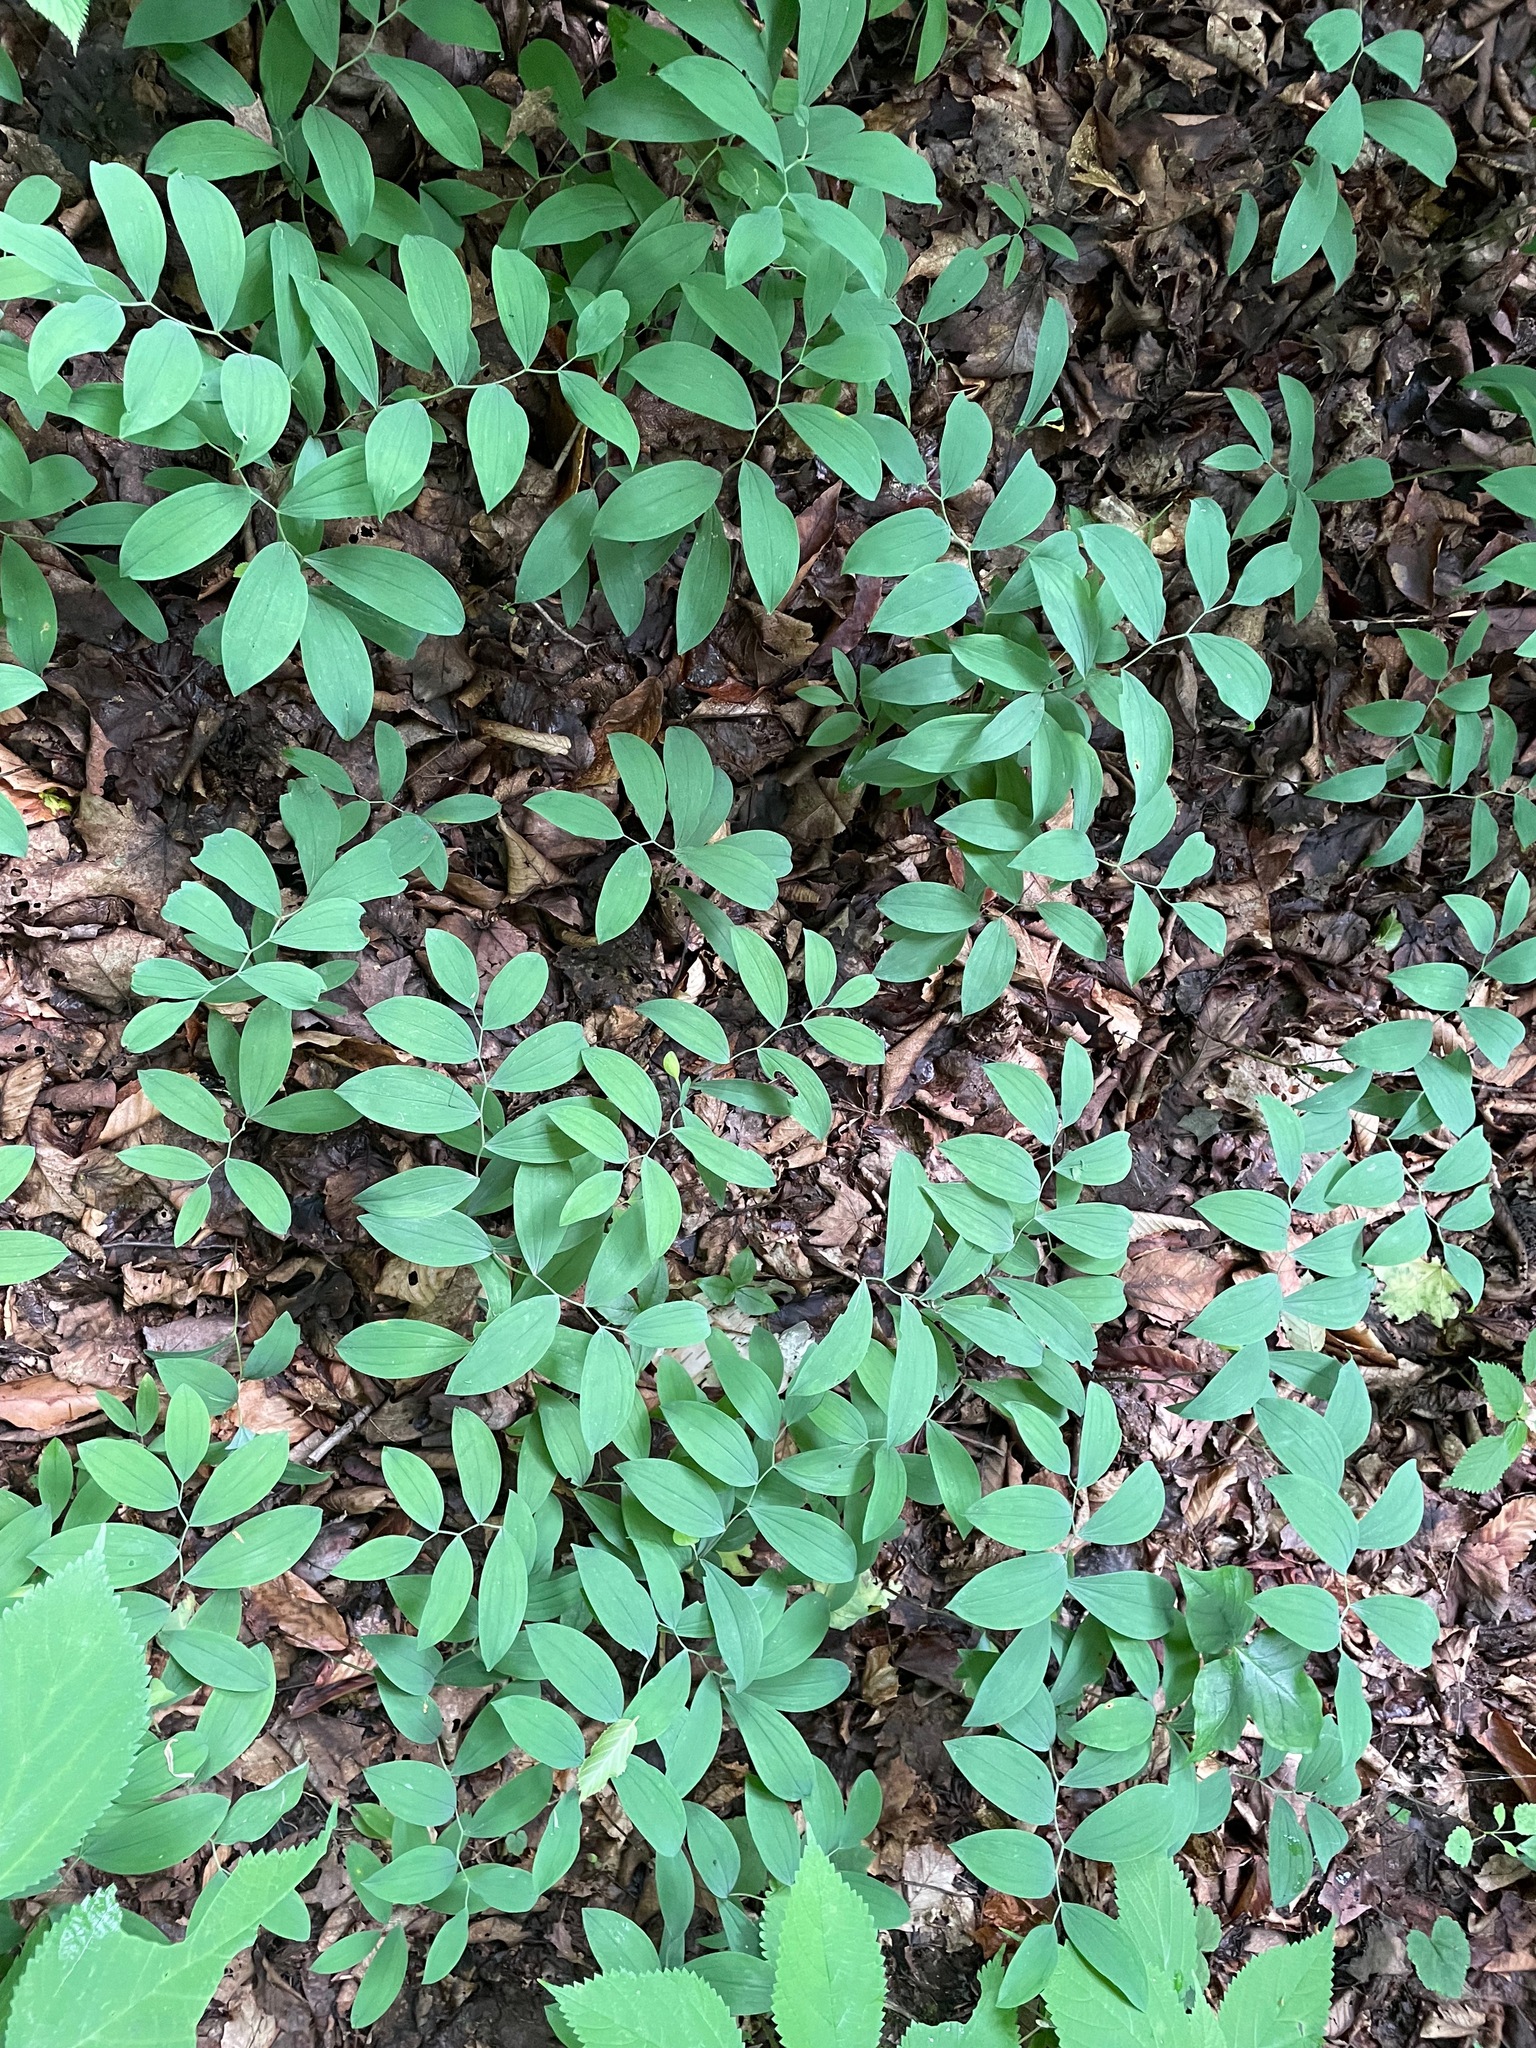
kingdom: Plantae
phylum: Tracheophyta
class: Liliopsida
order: Liliales
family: Colchicaceae
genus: Uvularia
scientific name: Uvularia sessilifolia
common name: Straw-lily
